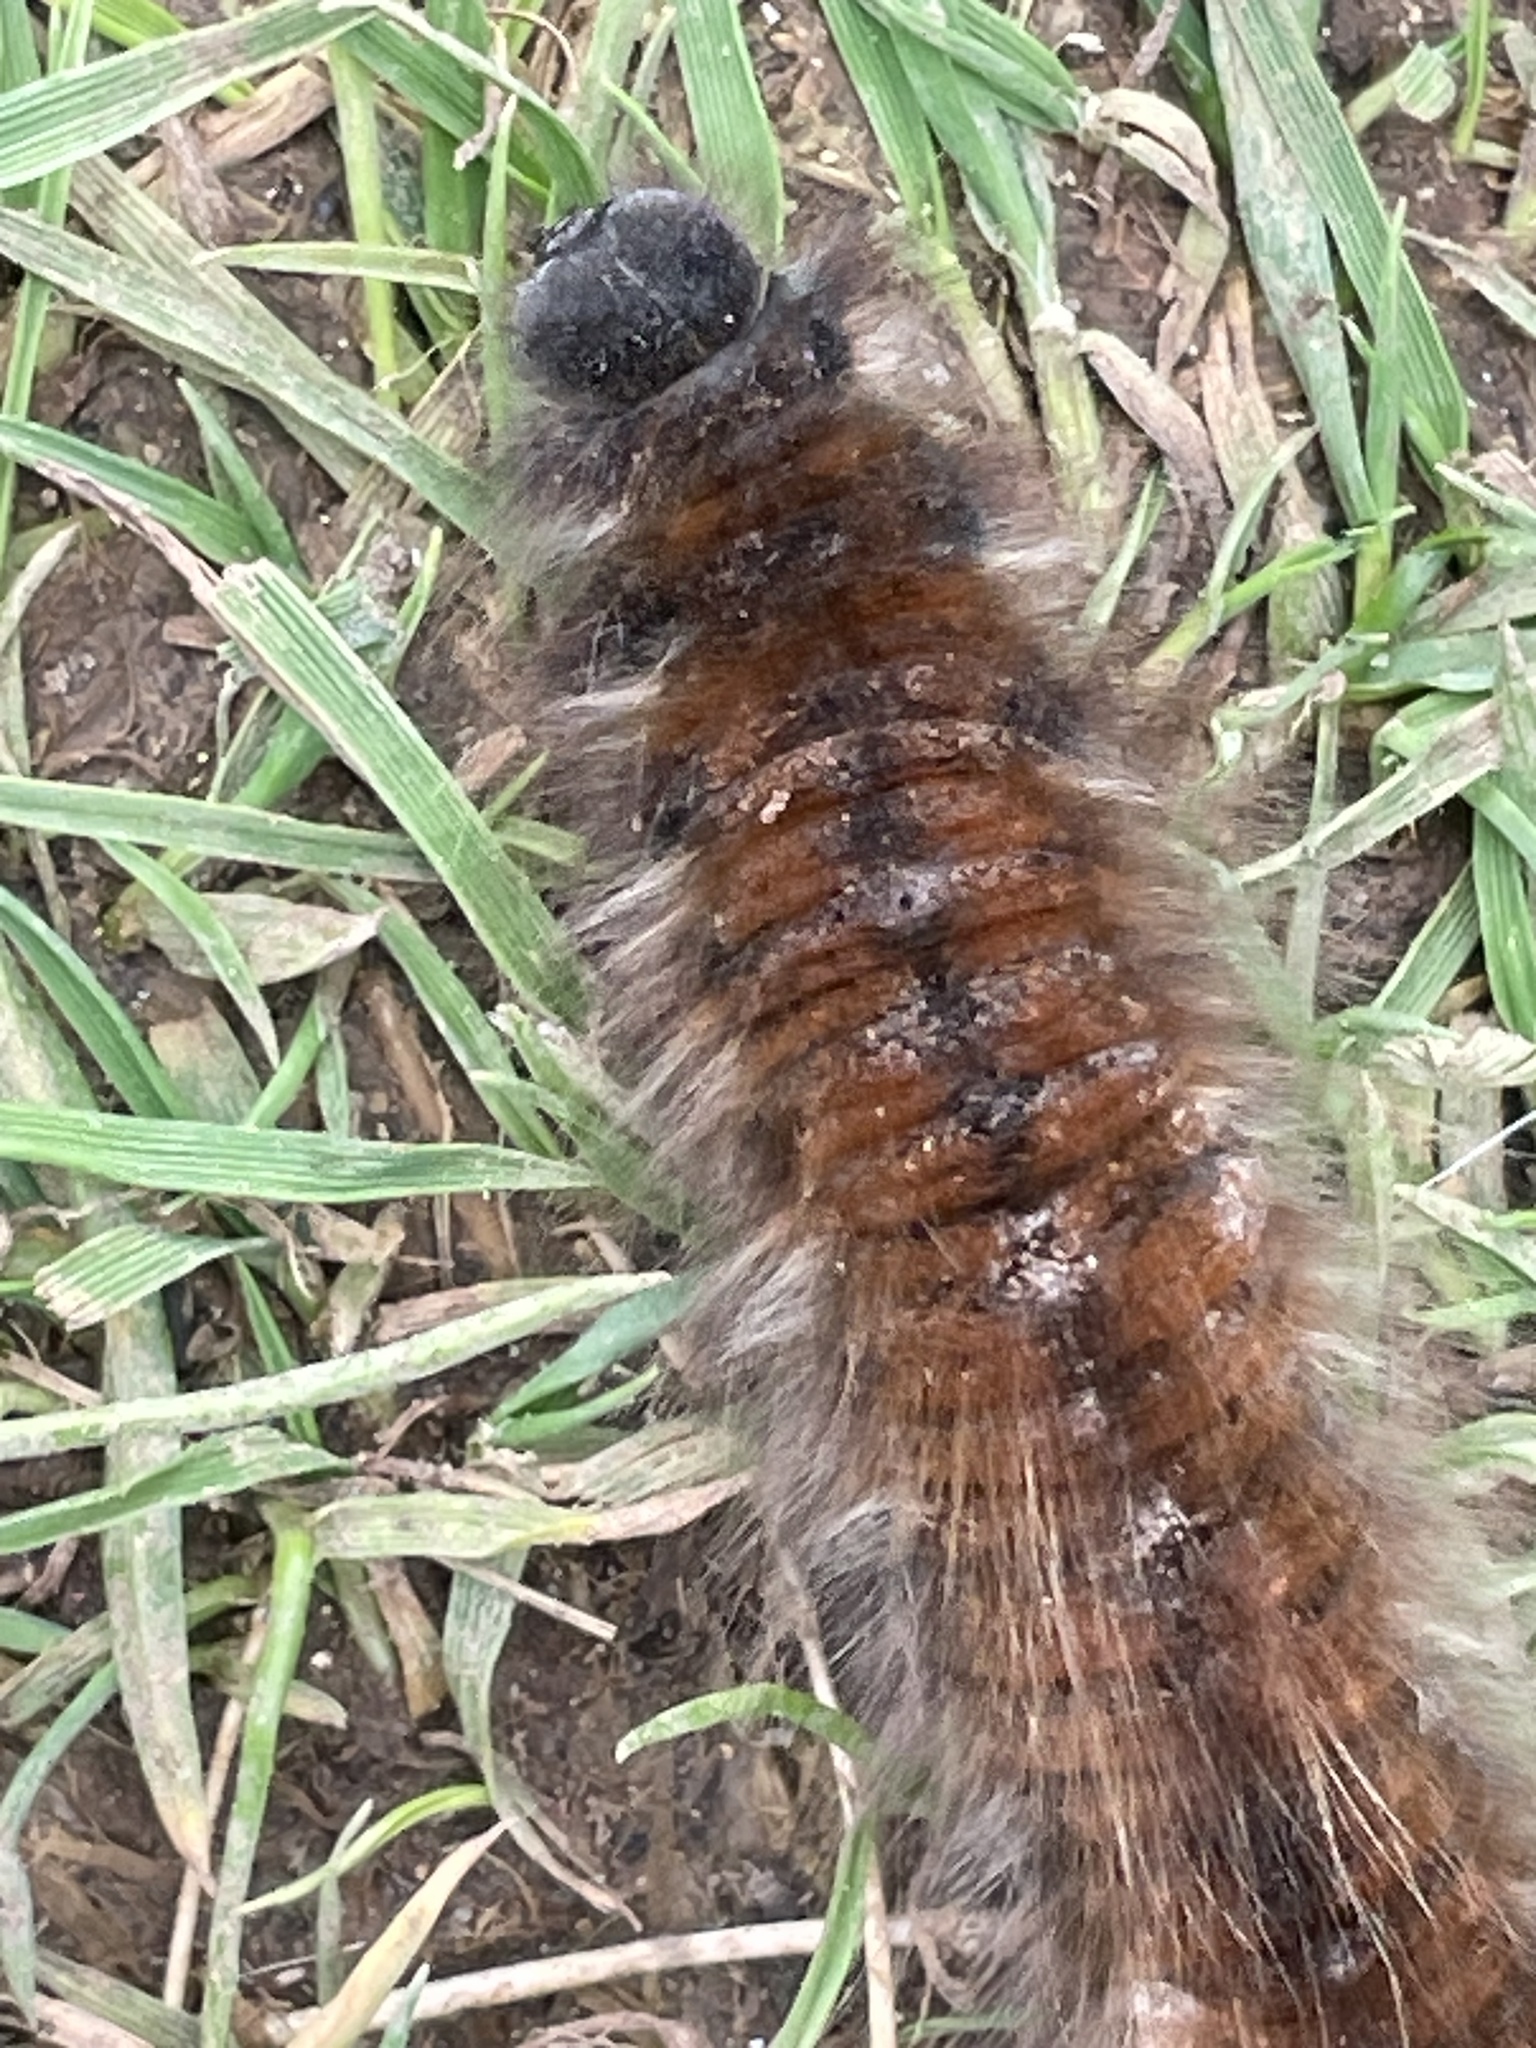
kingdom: Animalia
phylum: Arthropoda
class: Insecta
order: Lepidoptera
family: Lasiocampidae
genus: Macrothylacia
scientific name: Macrothylacia rubi
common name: Fox moth
